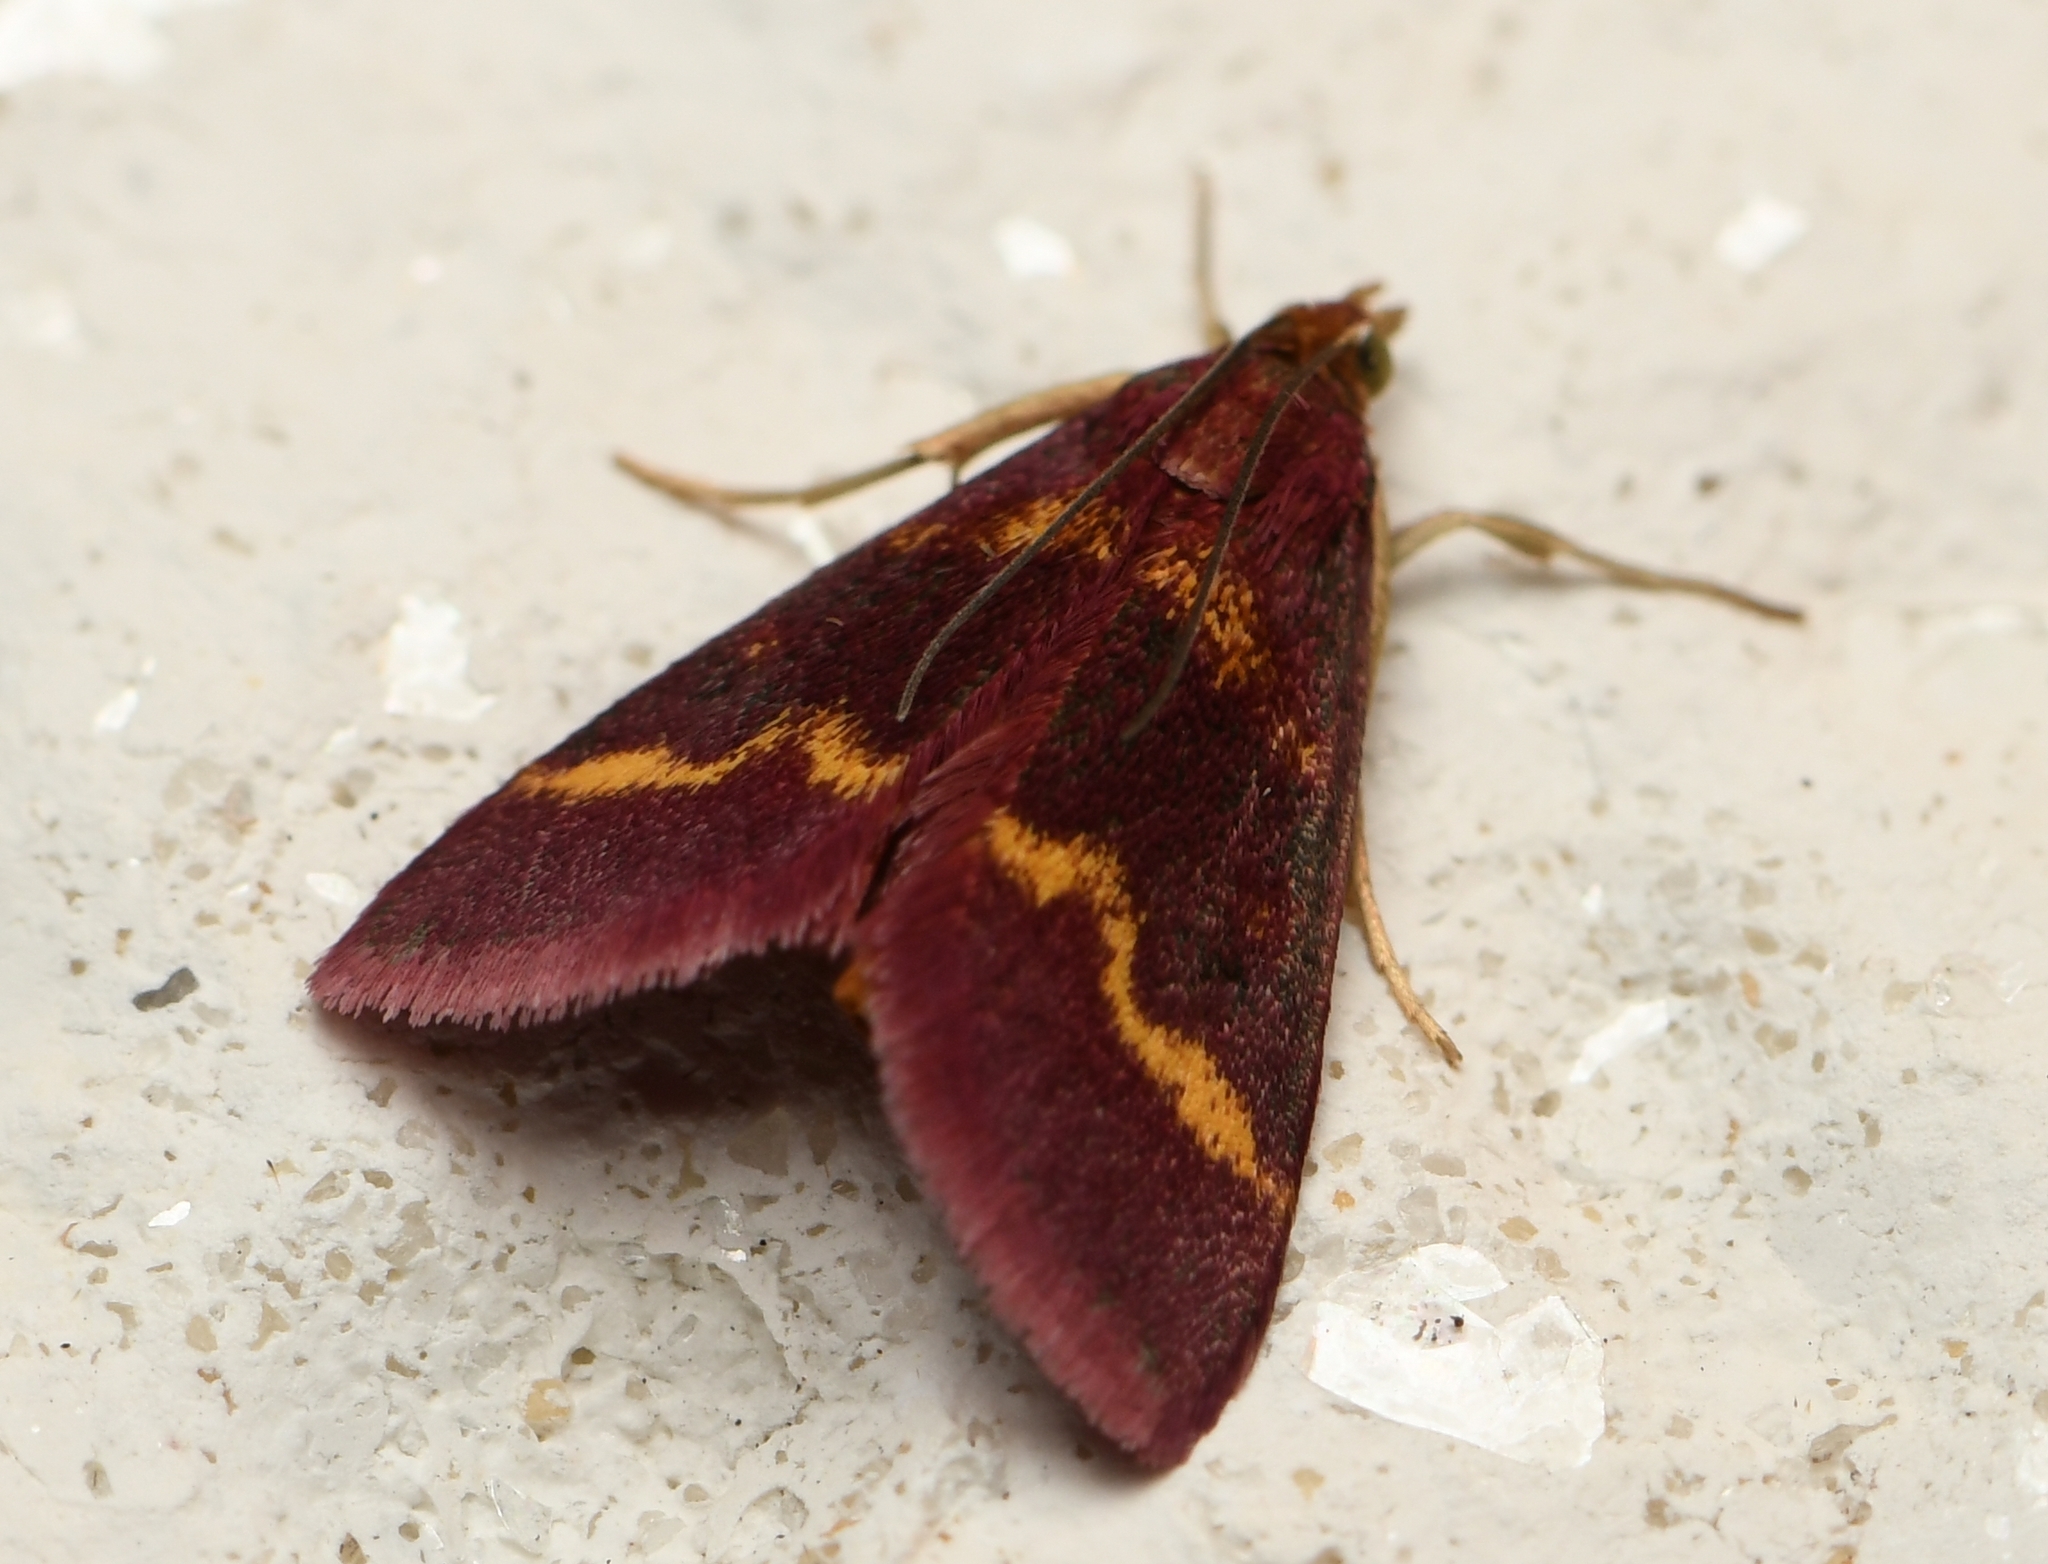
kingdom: Animalia
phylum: Arthropoda
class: Insecta
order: Lepidoptera
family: Crambidae
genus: Pyrausta
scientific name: Pyrausta tyralis
